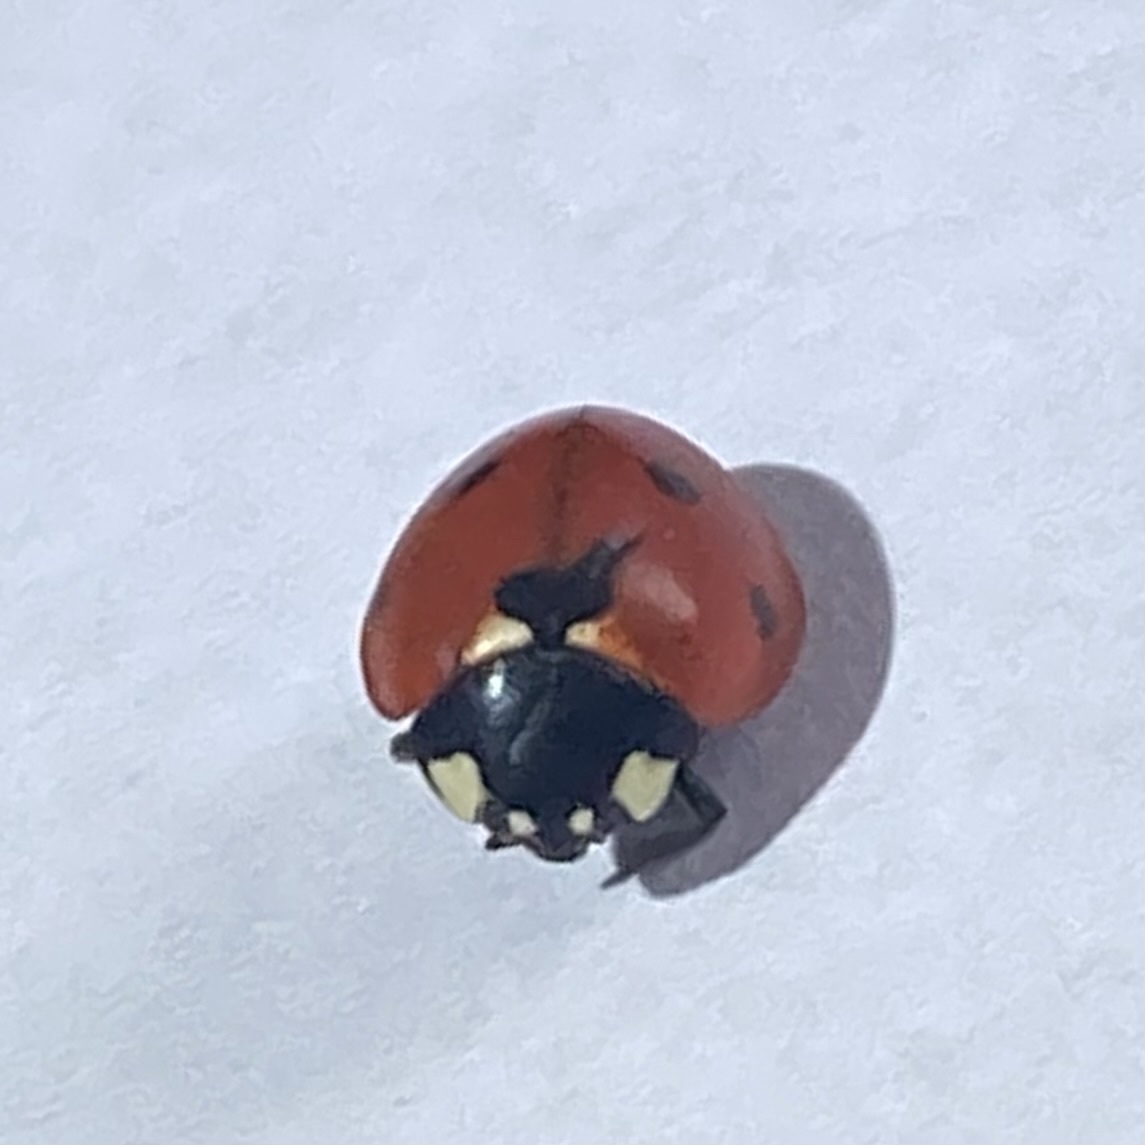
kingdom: Animalia
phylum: Arthropoda
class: Insecta
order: Coleoptera
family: Coccinellidae
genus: Coccinella
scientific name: Coccinella septempunctata
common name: Sevenspotted lady beetle
